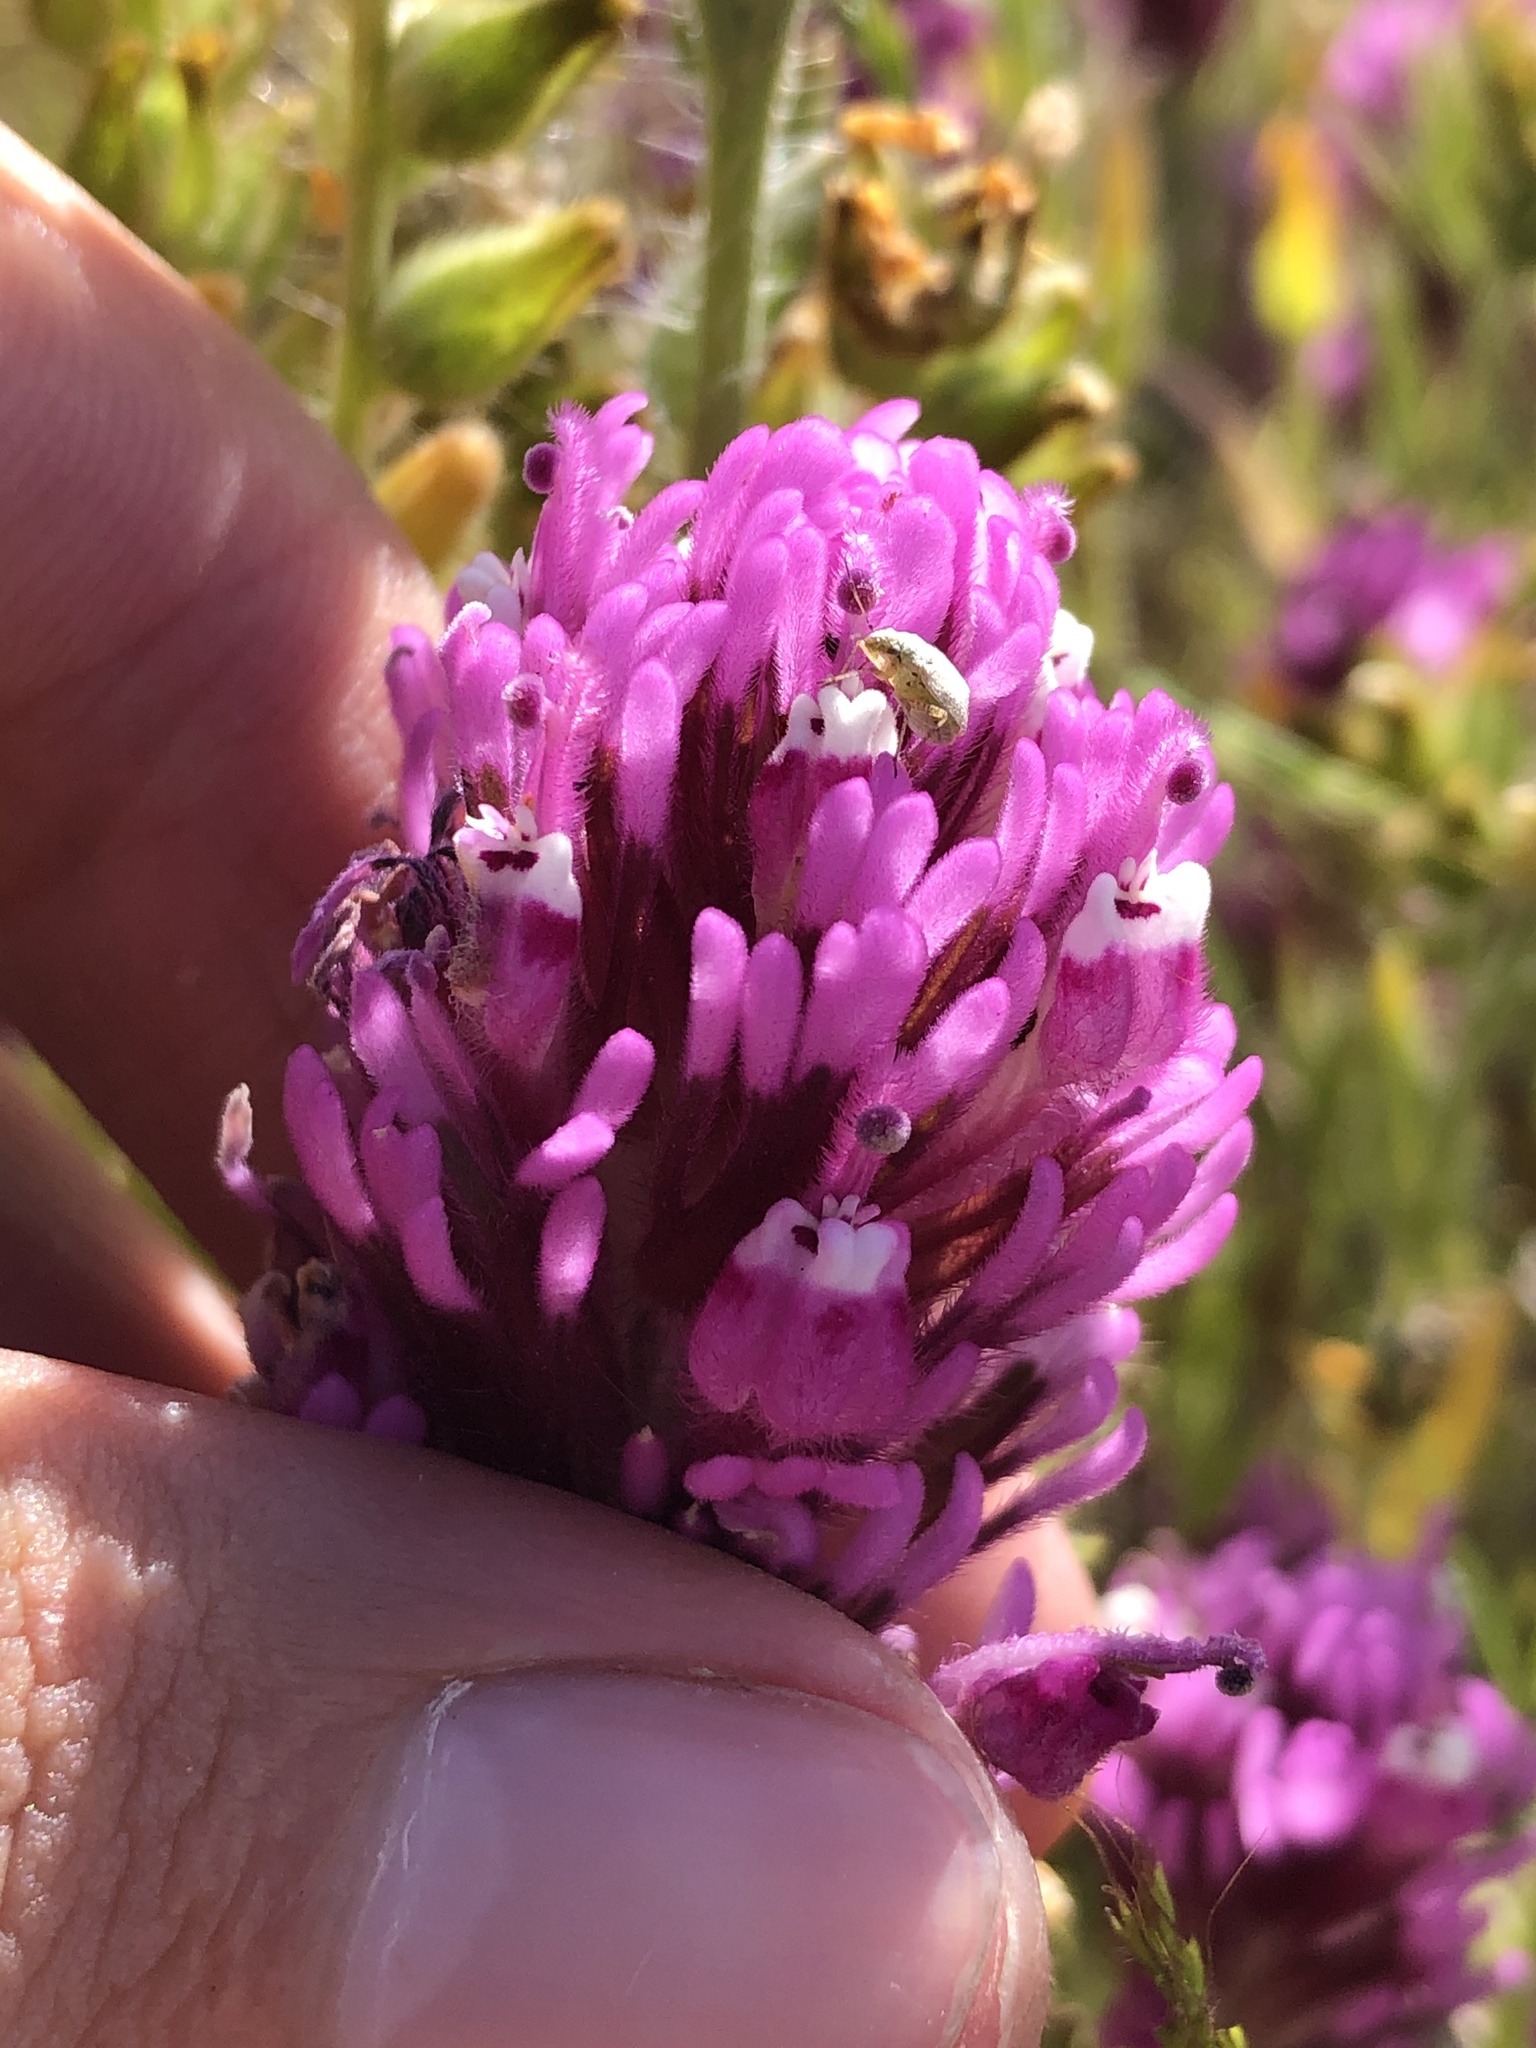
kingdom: Plantae
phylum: Tracheophyta
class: Magnoliopsida
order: Lamiales
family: Orobanchaceae
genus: Castilleja
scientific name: Castilleja exserta
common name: Purple owl-clover
